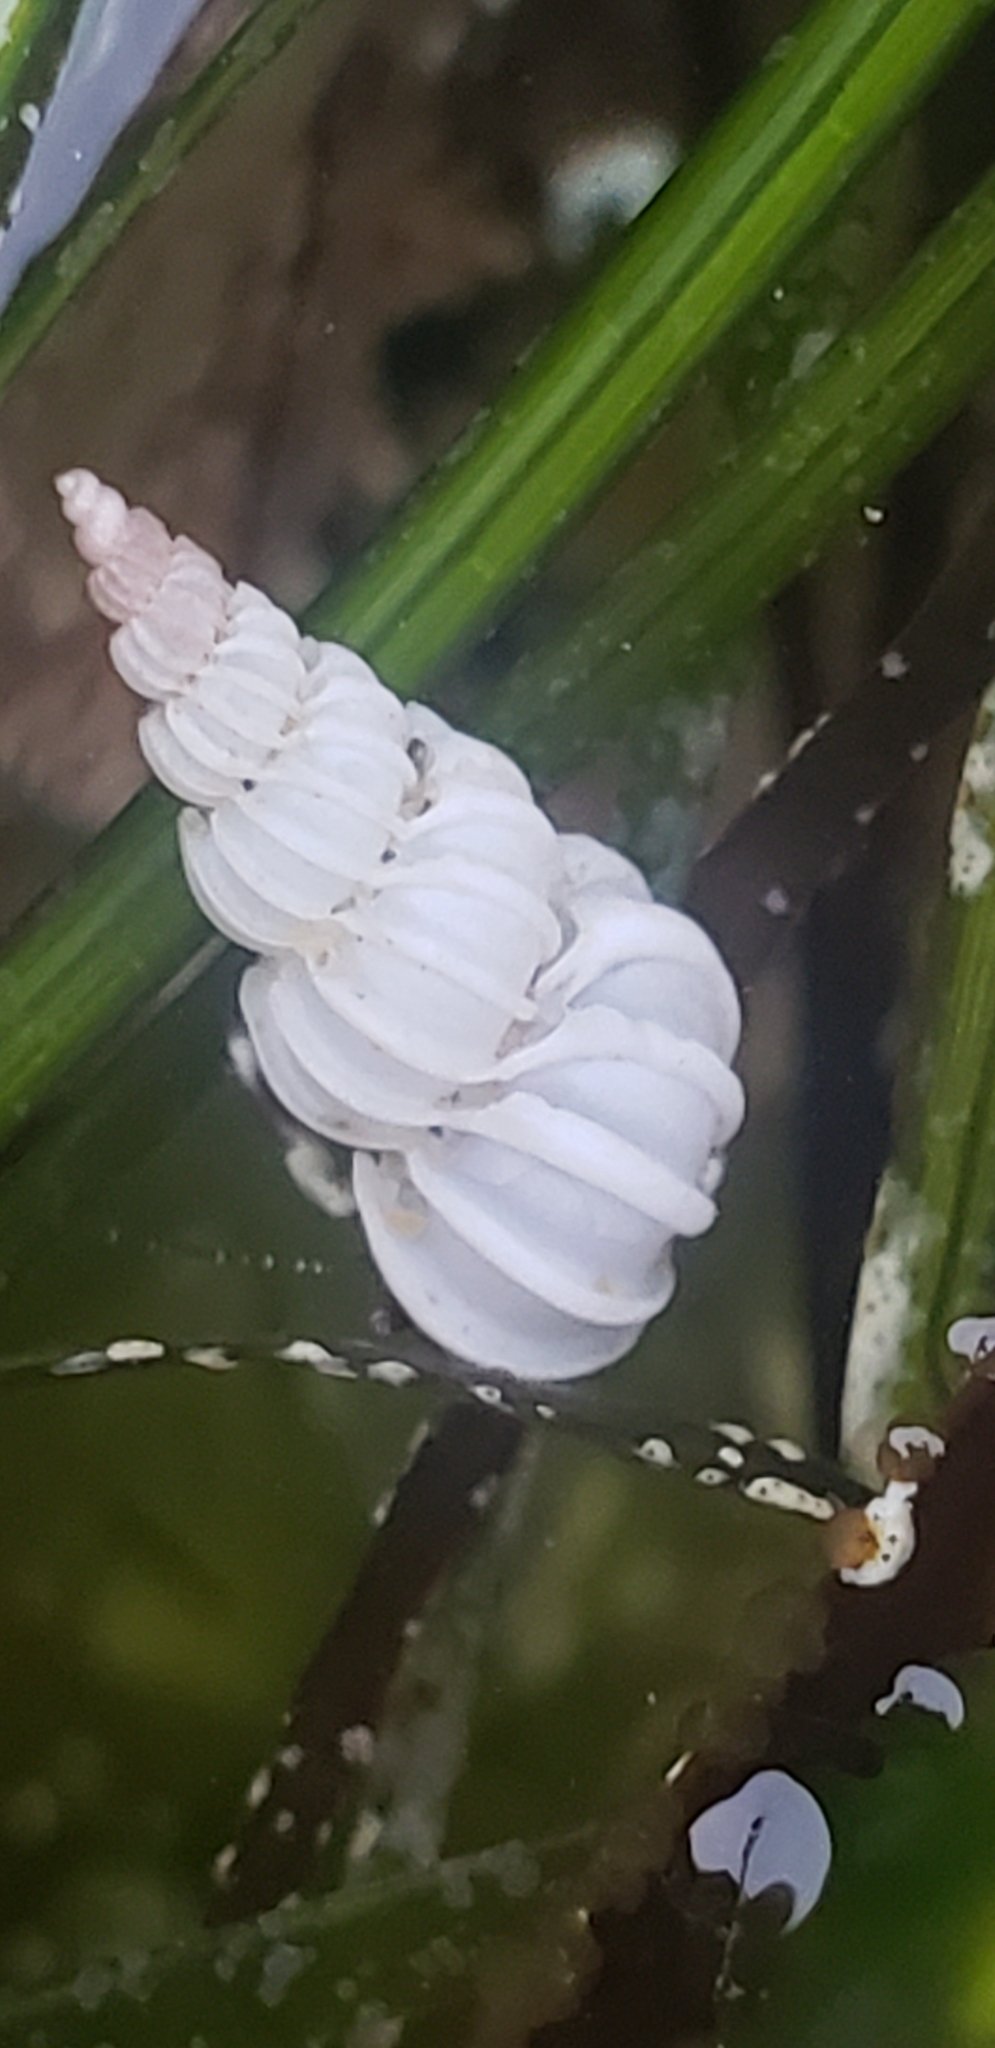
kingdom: Animalia
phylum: Mollusca
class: Gastropoda
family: Epitoniidae
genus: Epitonium
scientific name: Epitonium tinctum
